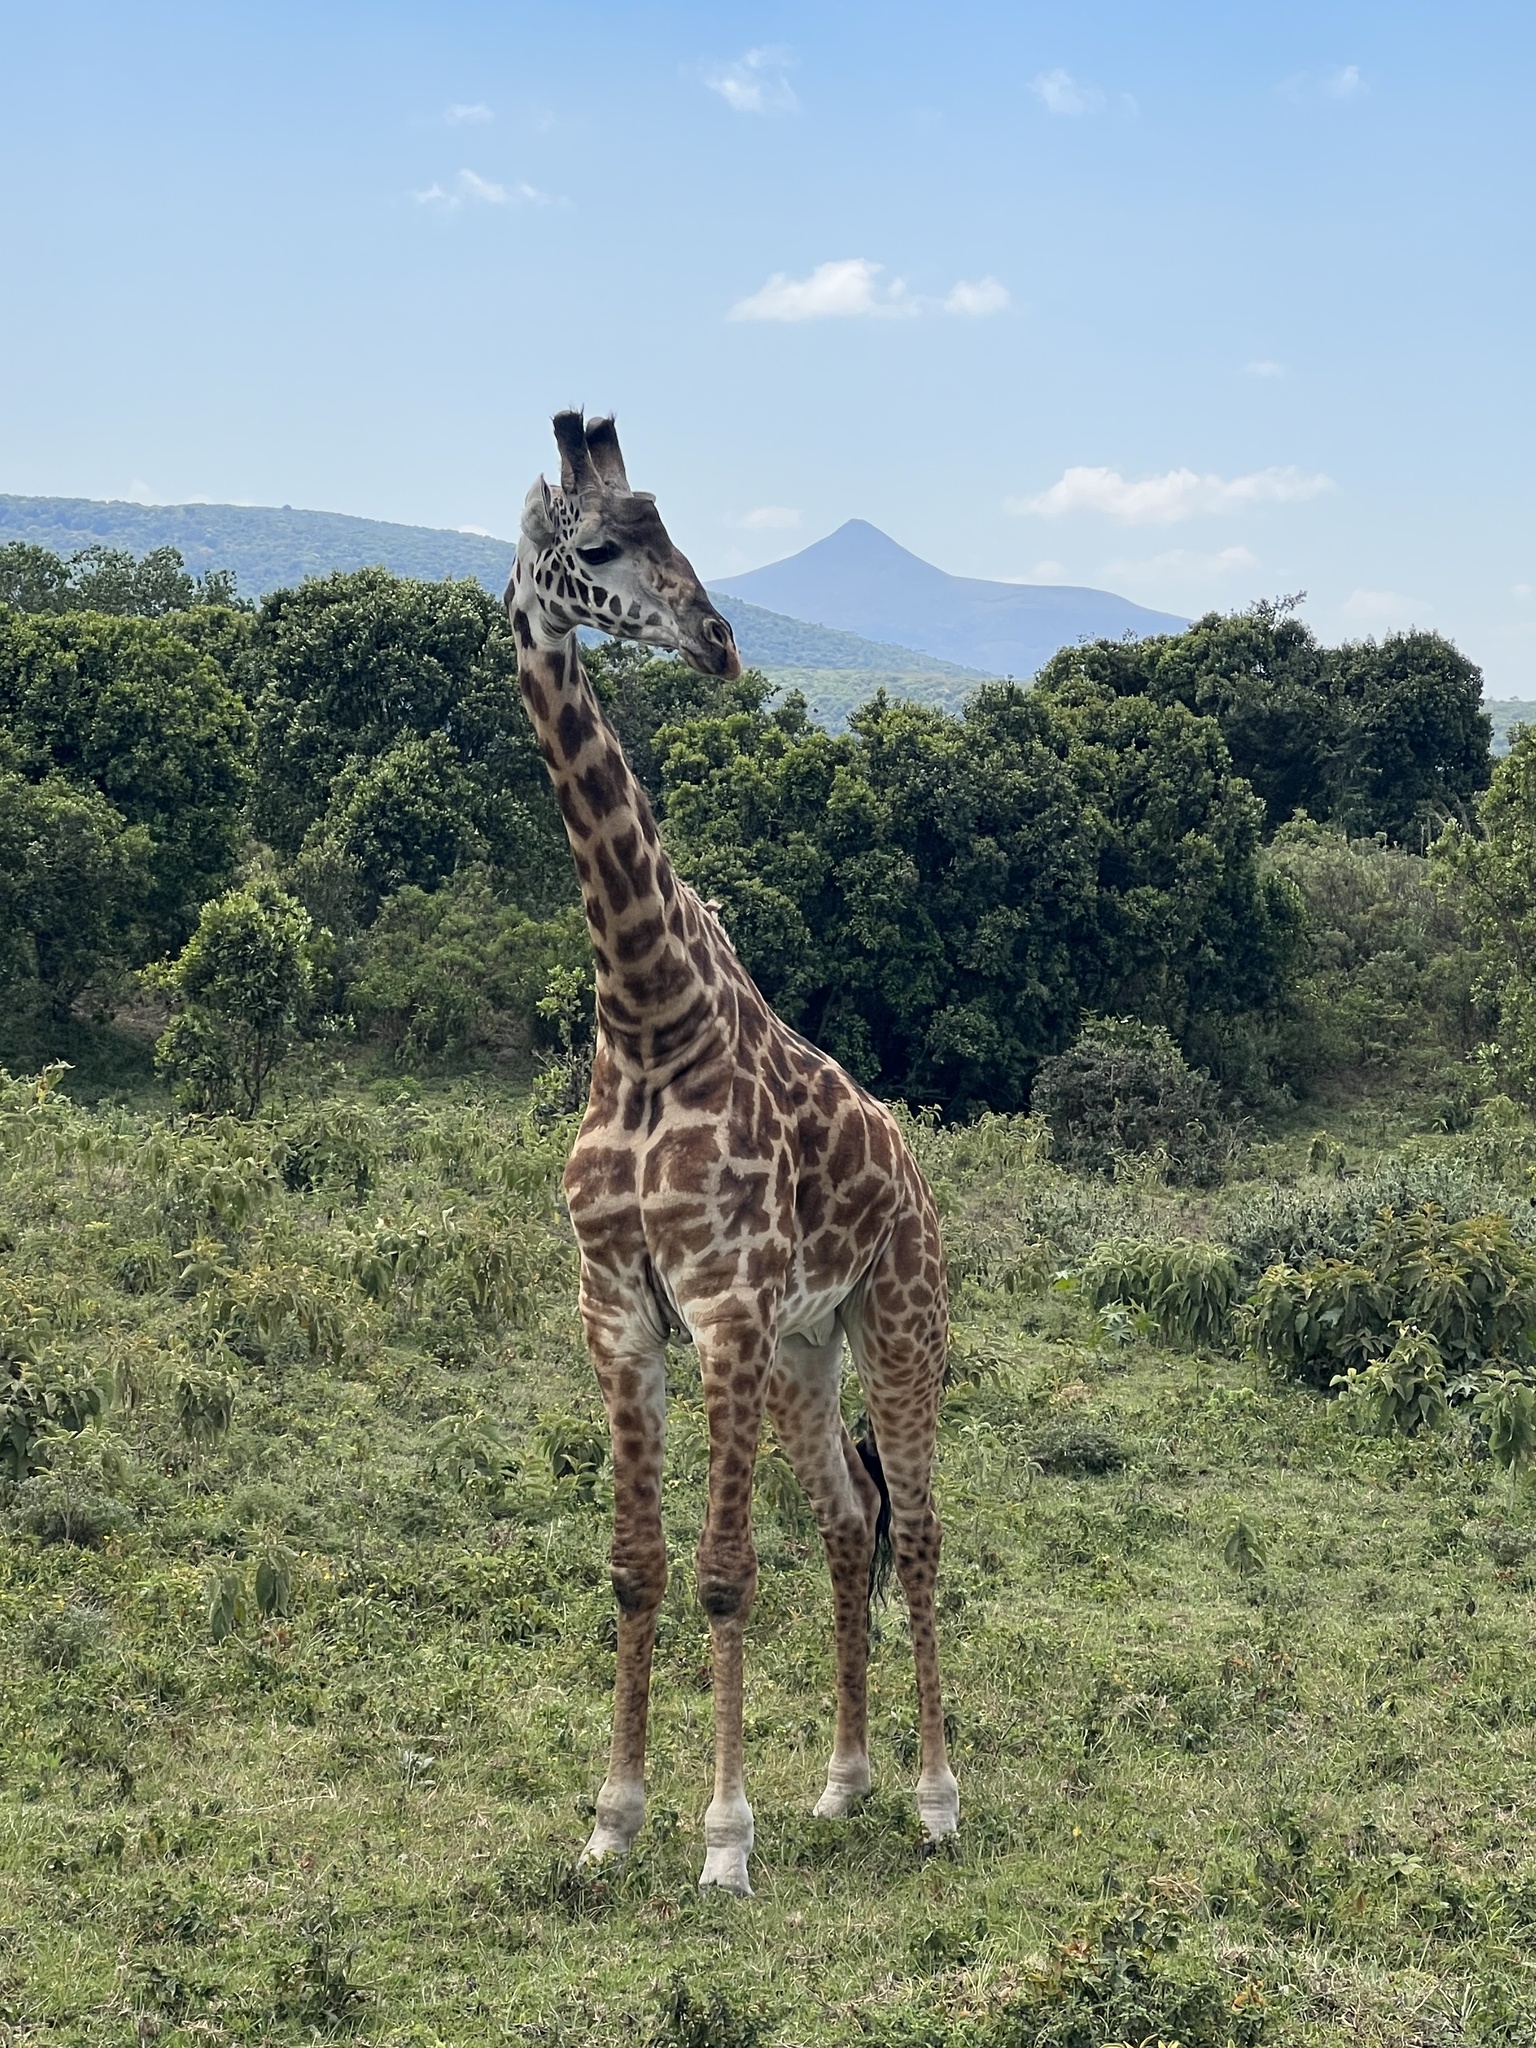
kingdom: Animalia
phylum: Chordata
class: Mammalia
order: Artiodactyla
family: Giraffidae
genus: Giraffa
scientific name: Giraffa tippelskirchi
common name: Masai giraffe
